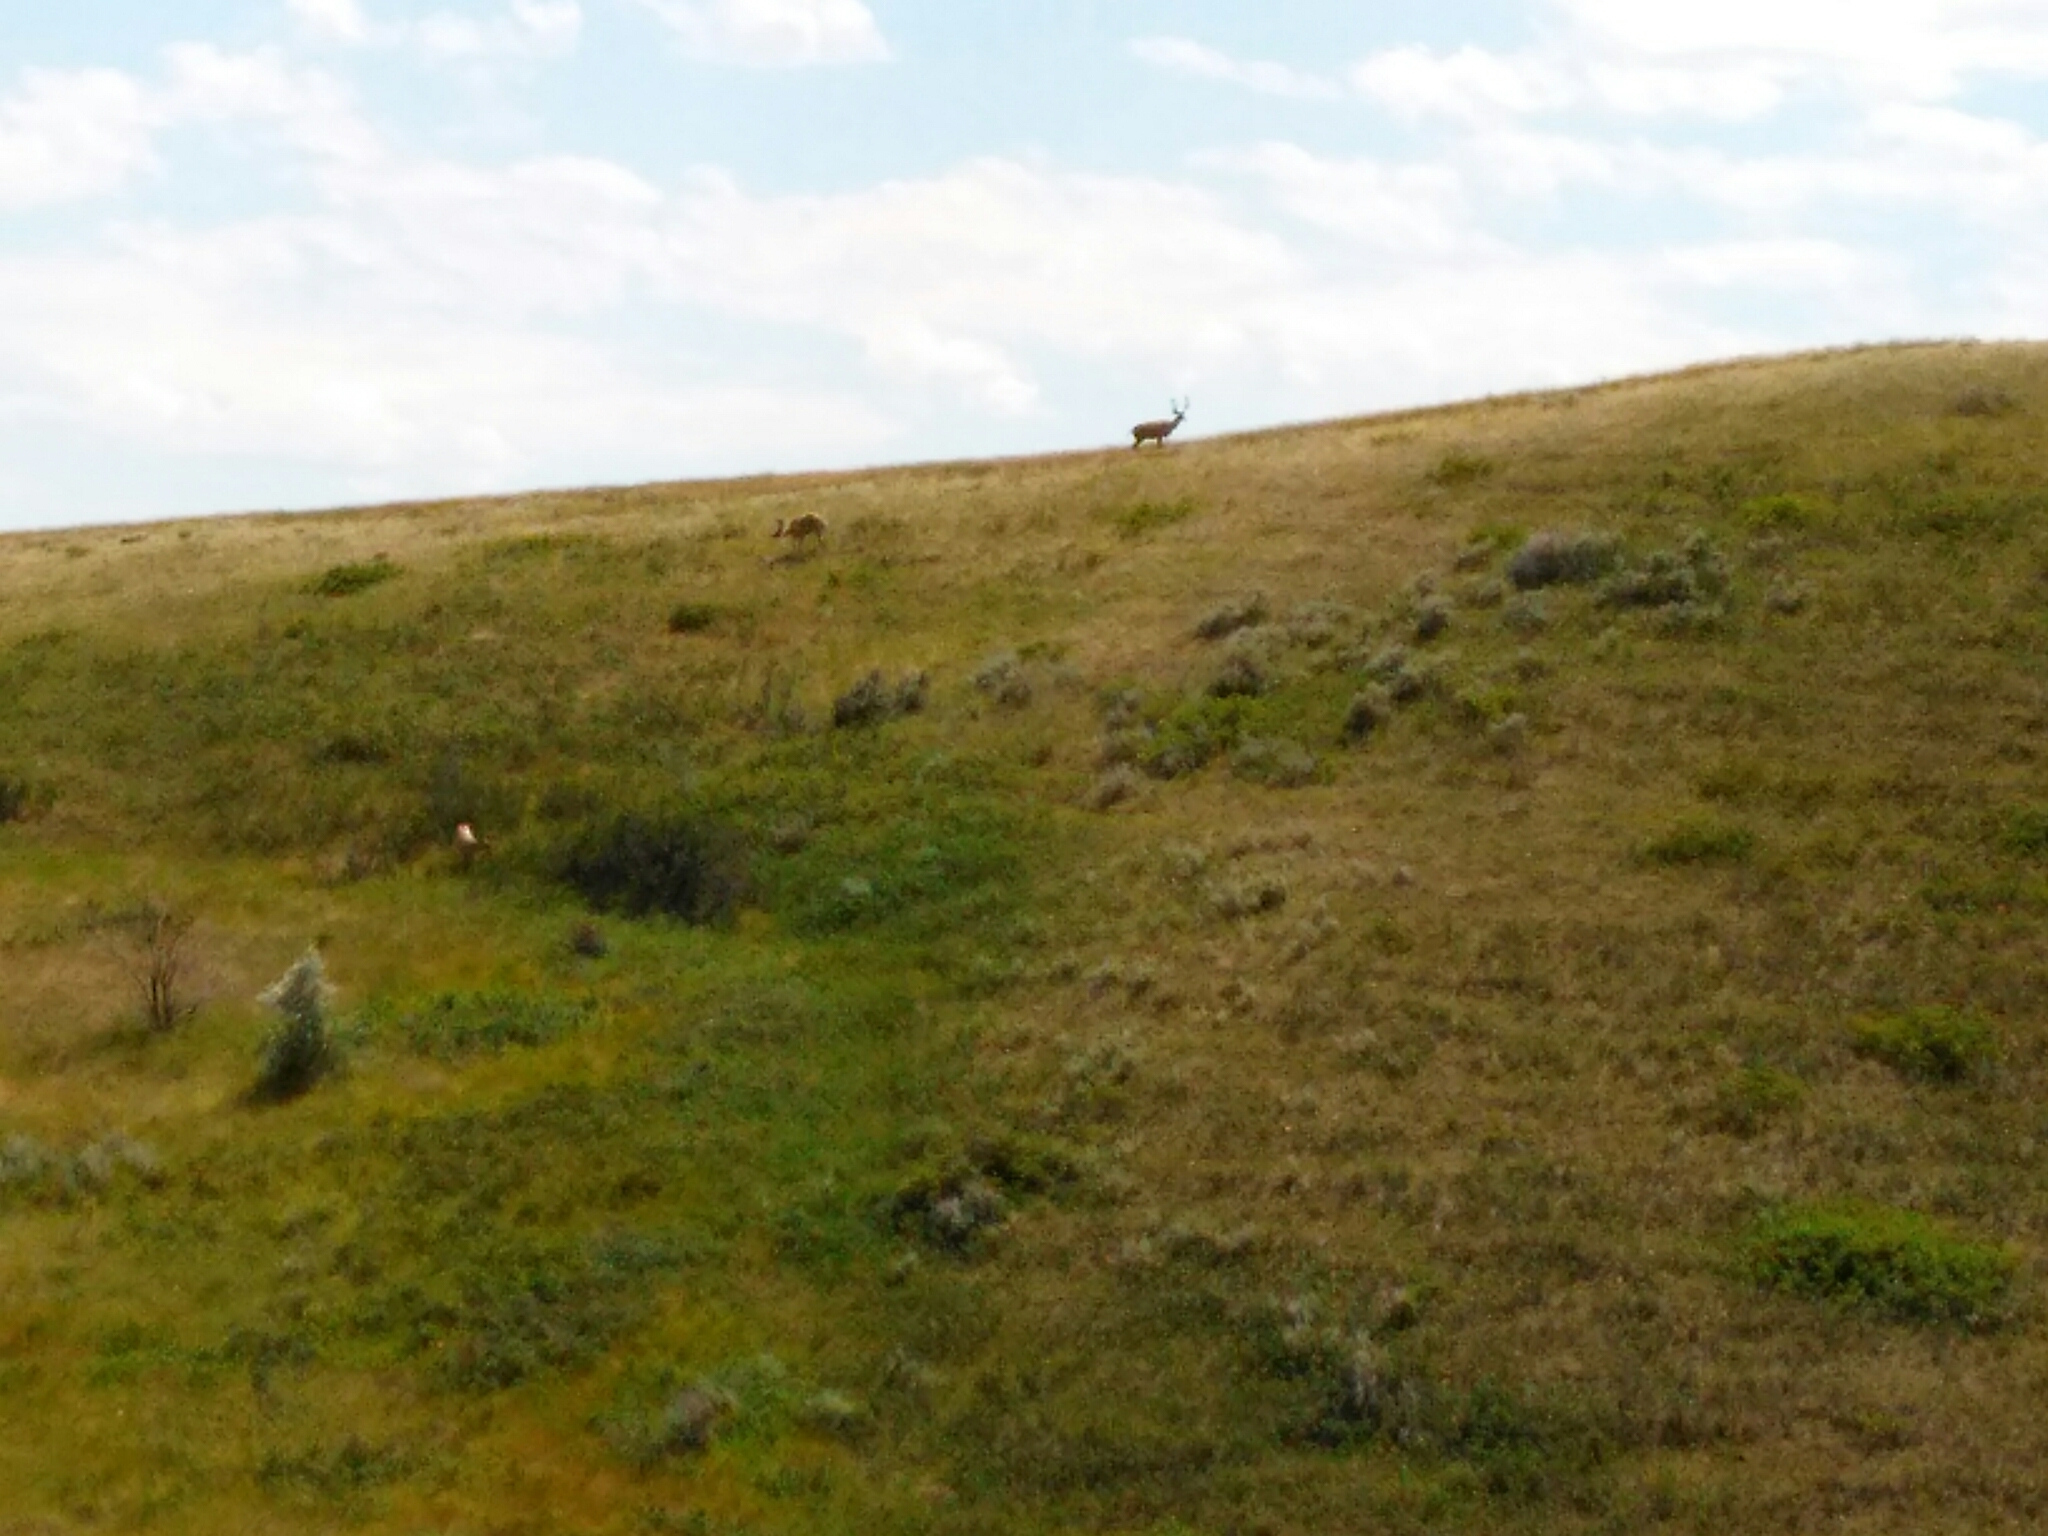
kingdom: Animalia
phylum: Chordata
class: Mammalia
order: Artiodactyla
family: Cervidae
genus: Odocoileus
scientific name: Odocoileus hemionus
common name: Mule deer
